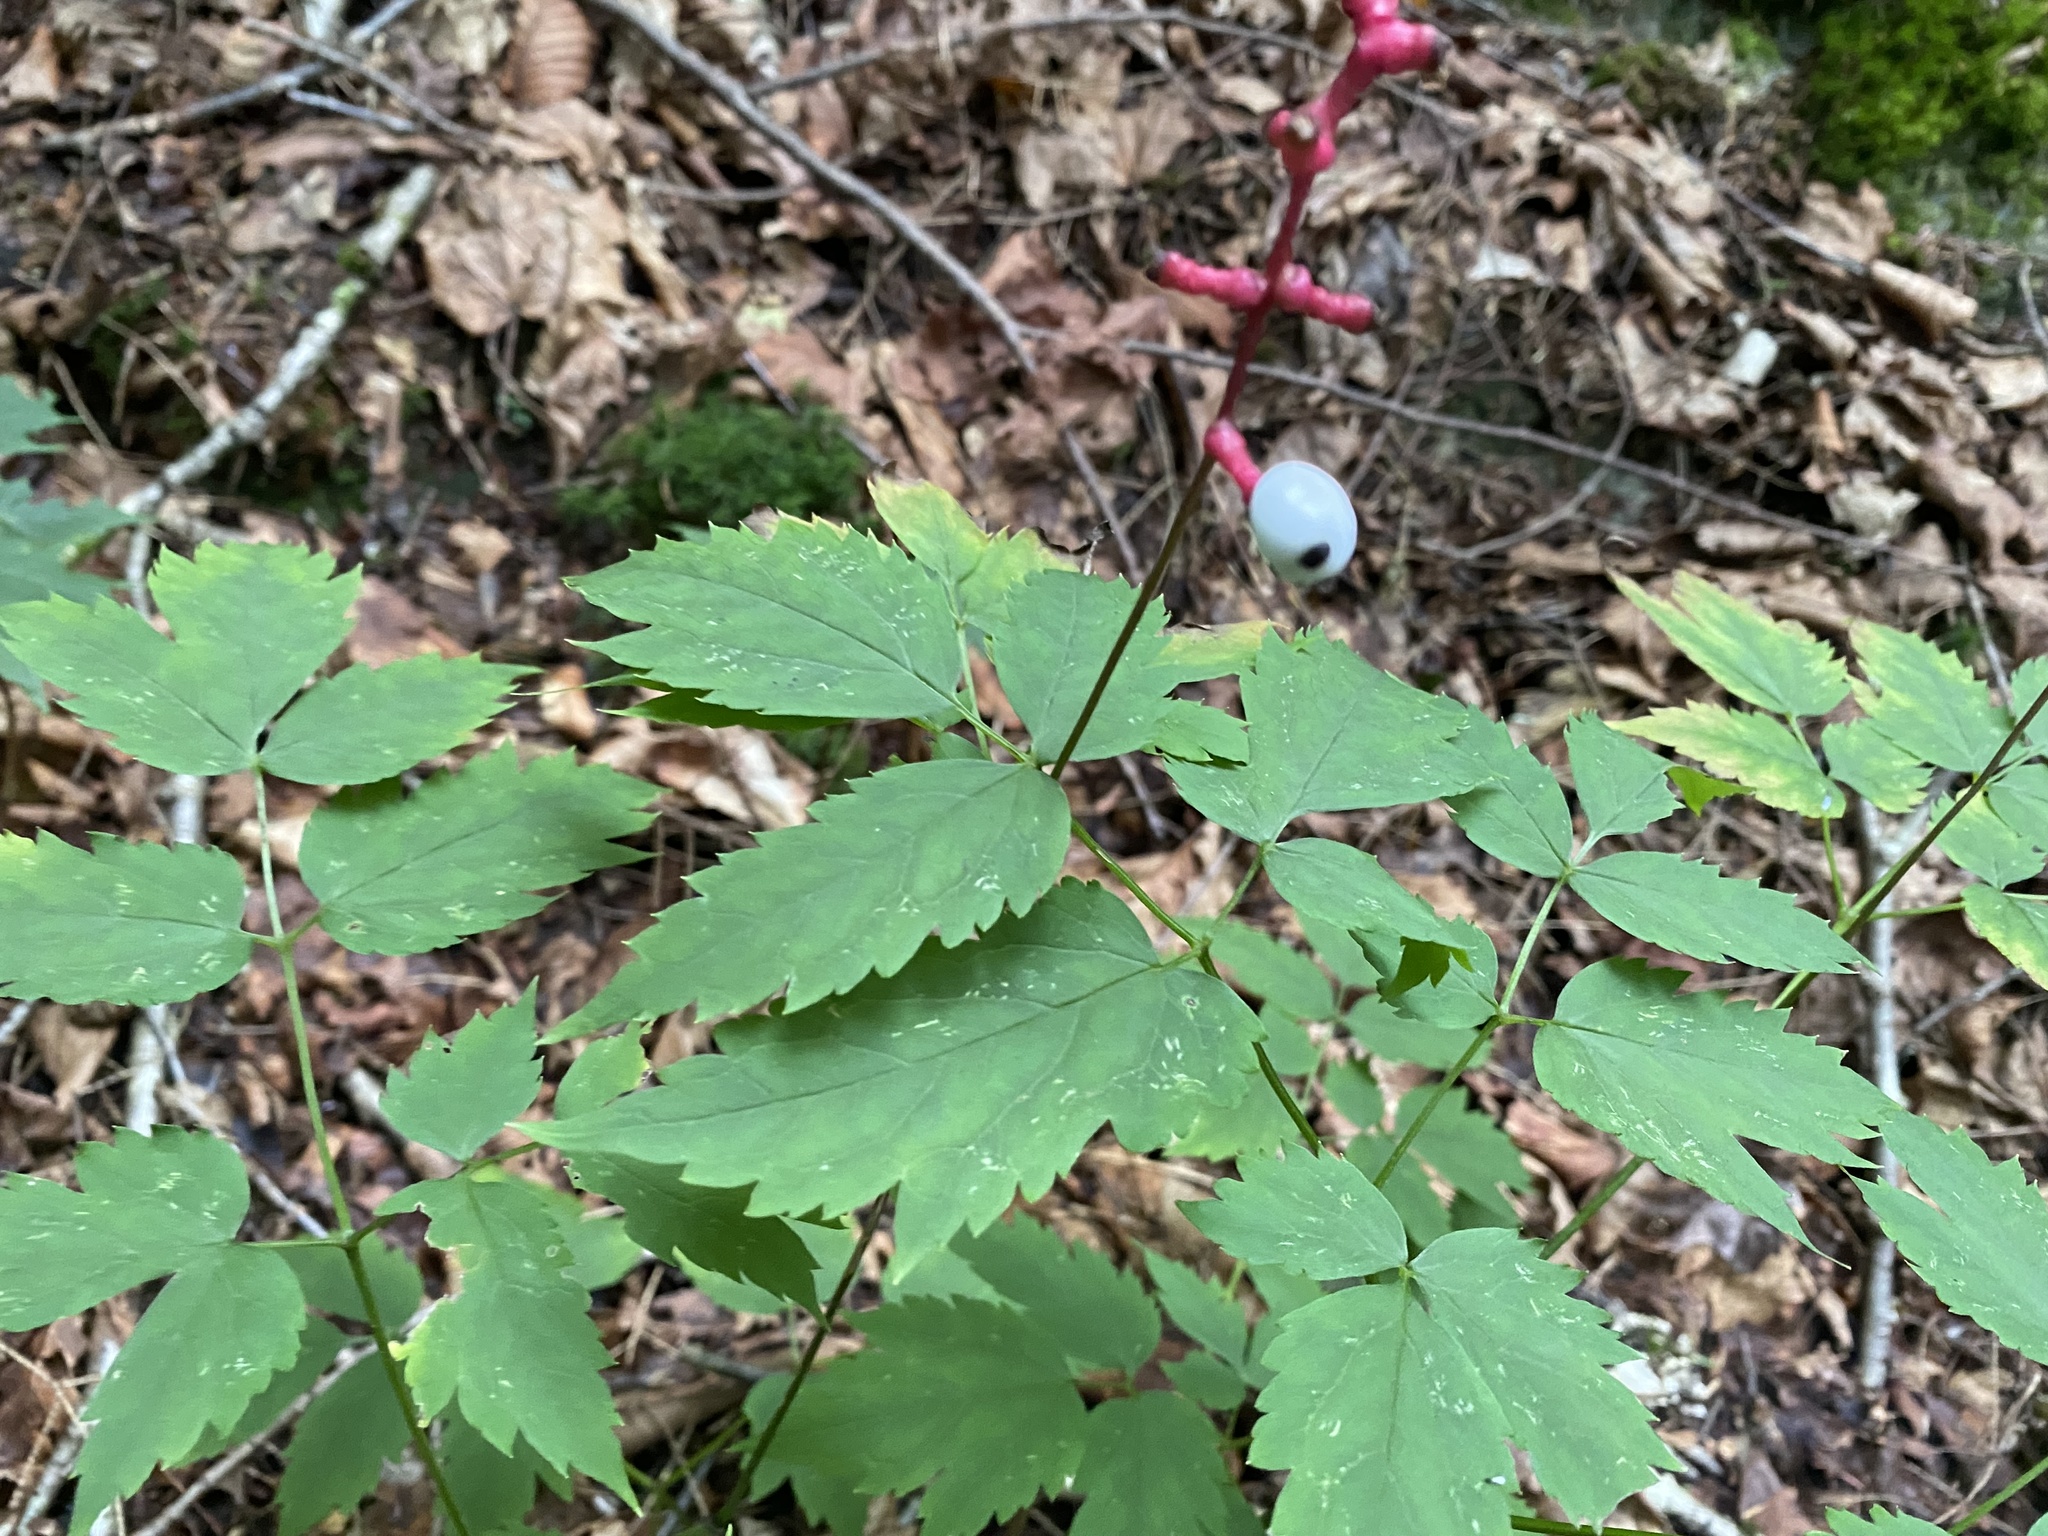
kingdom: Plantae
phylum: Tracheophyta
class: Magnoliopsida
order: Ranunculales
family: Ranunculaceae
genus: Actaea
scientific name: Actaea pachypoda
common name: Doll's-eyes
